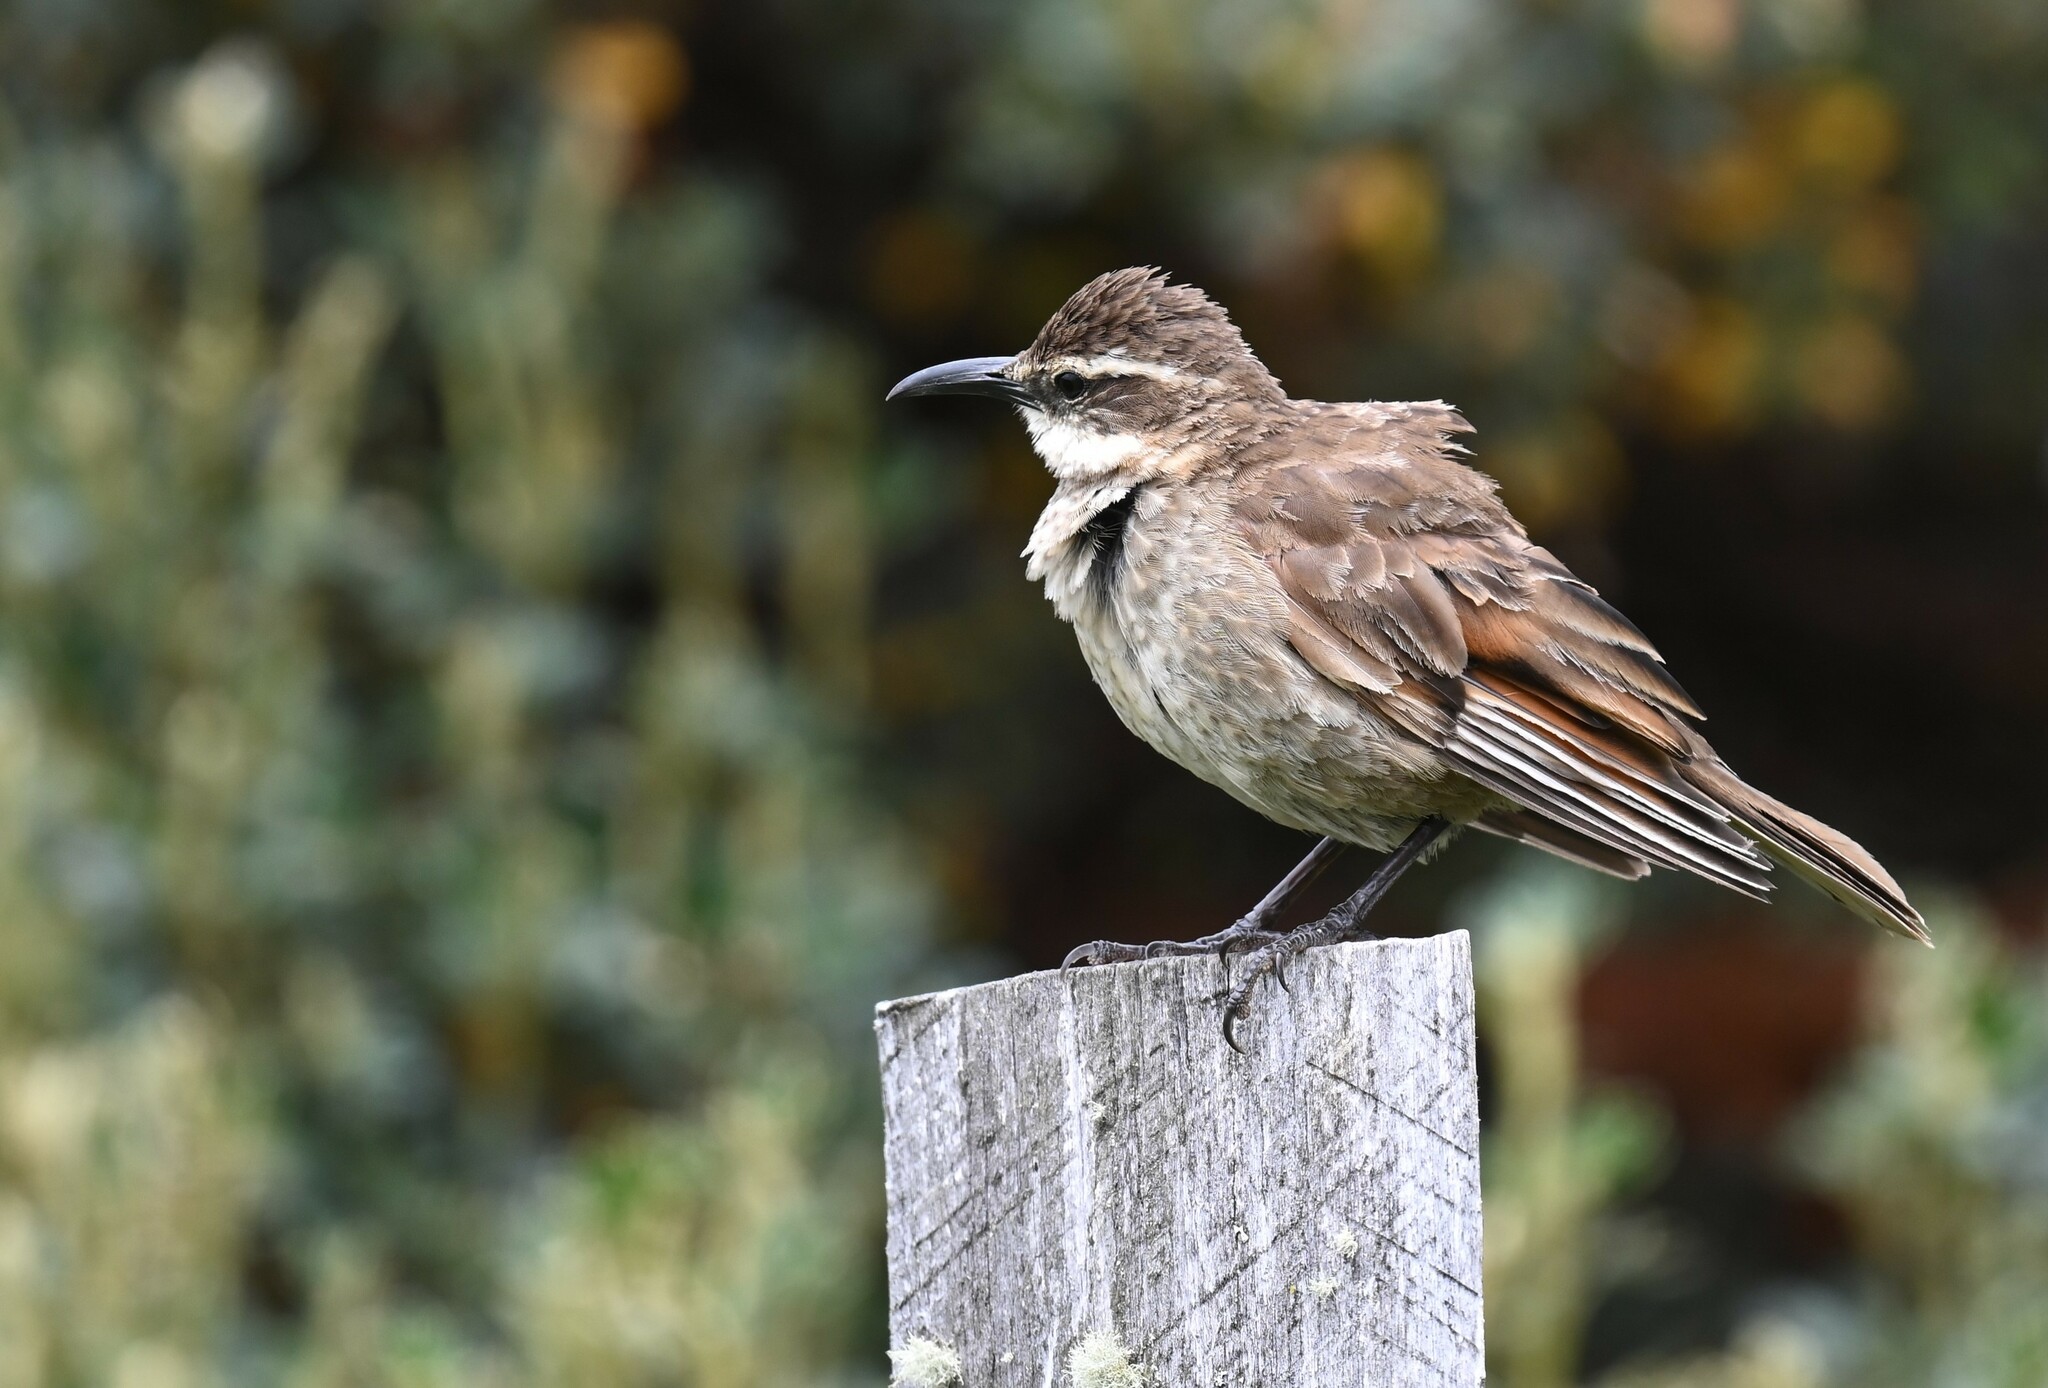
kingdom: Animalia
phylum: Chordata
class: Aves
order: Passeriformes
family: Furnariidae
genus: Cinclodes
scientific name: Cinclodes excelsior
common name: Stout-billed cinclodes
